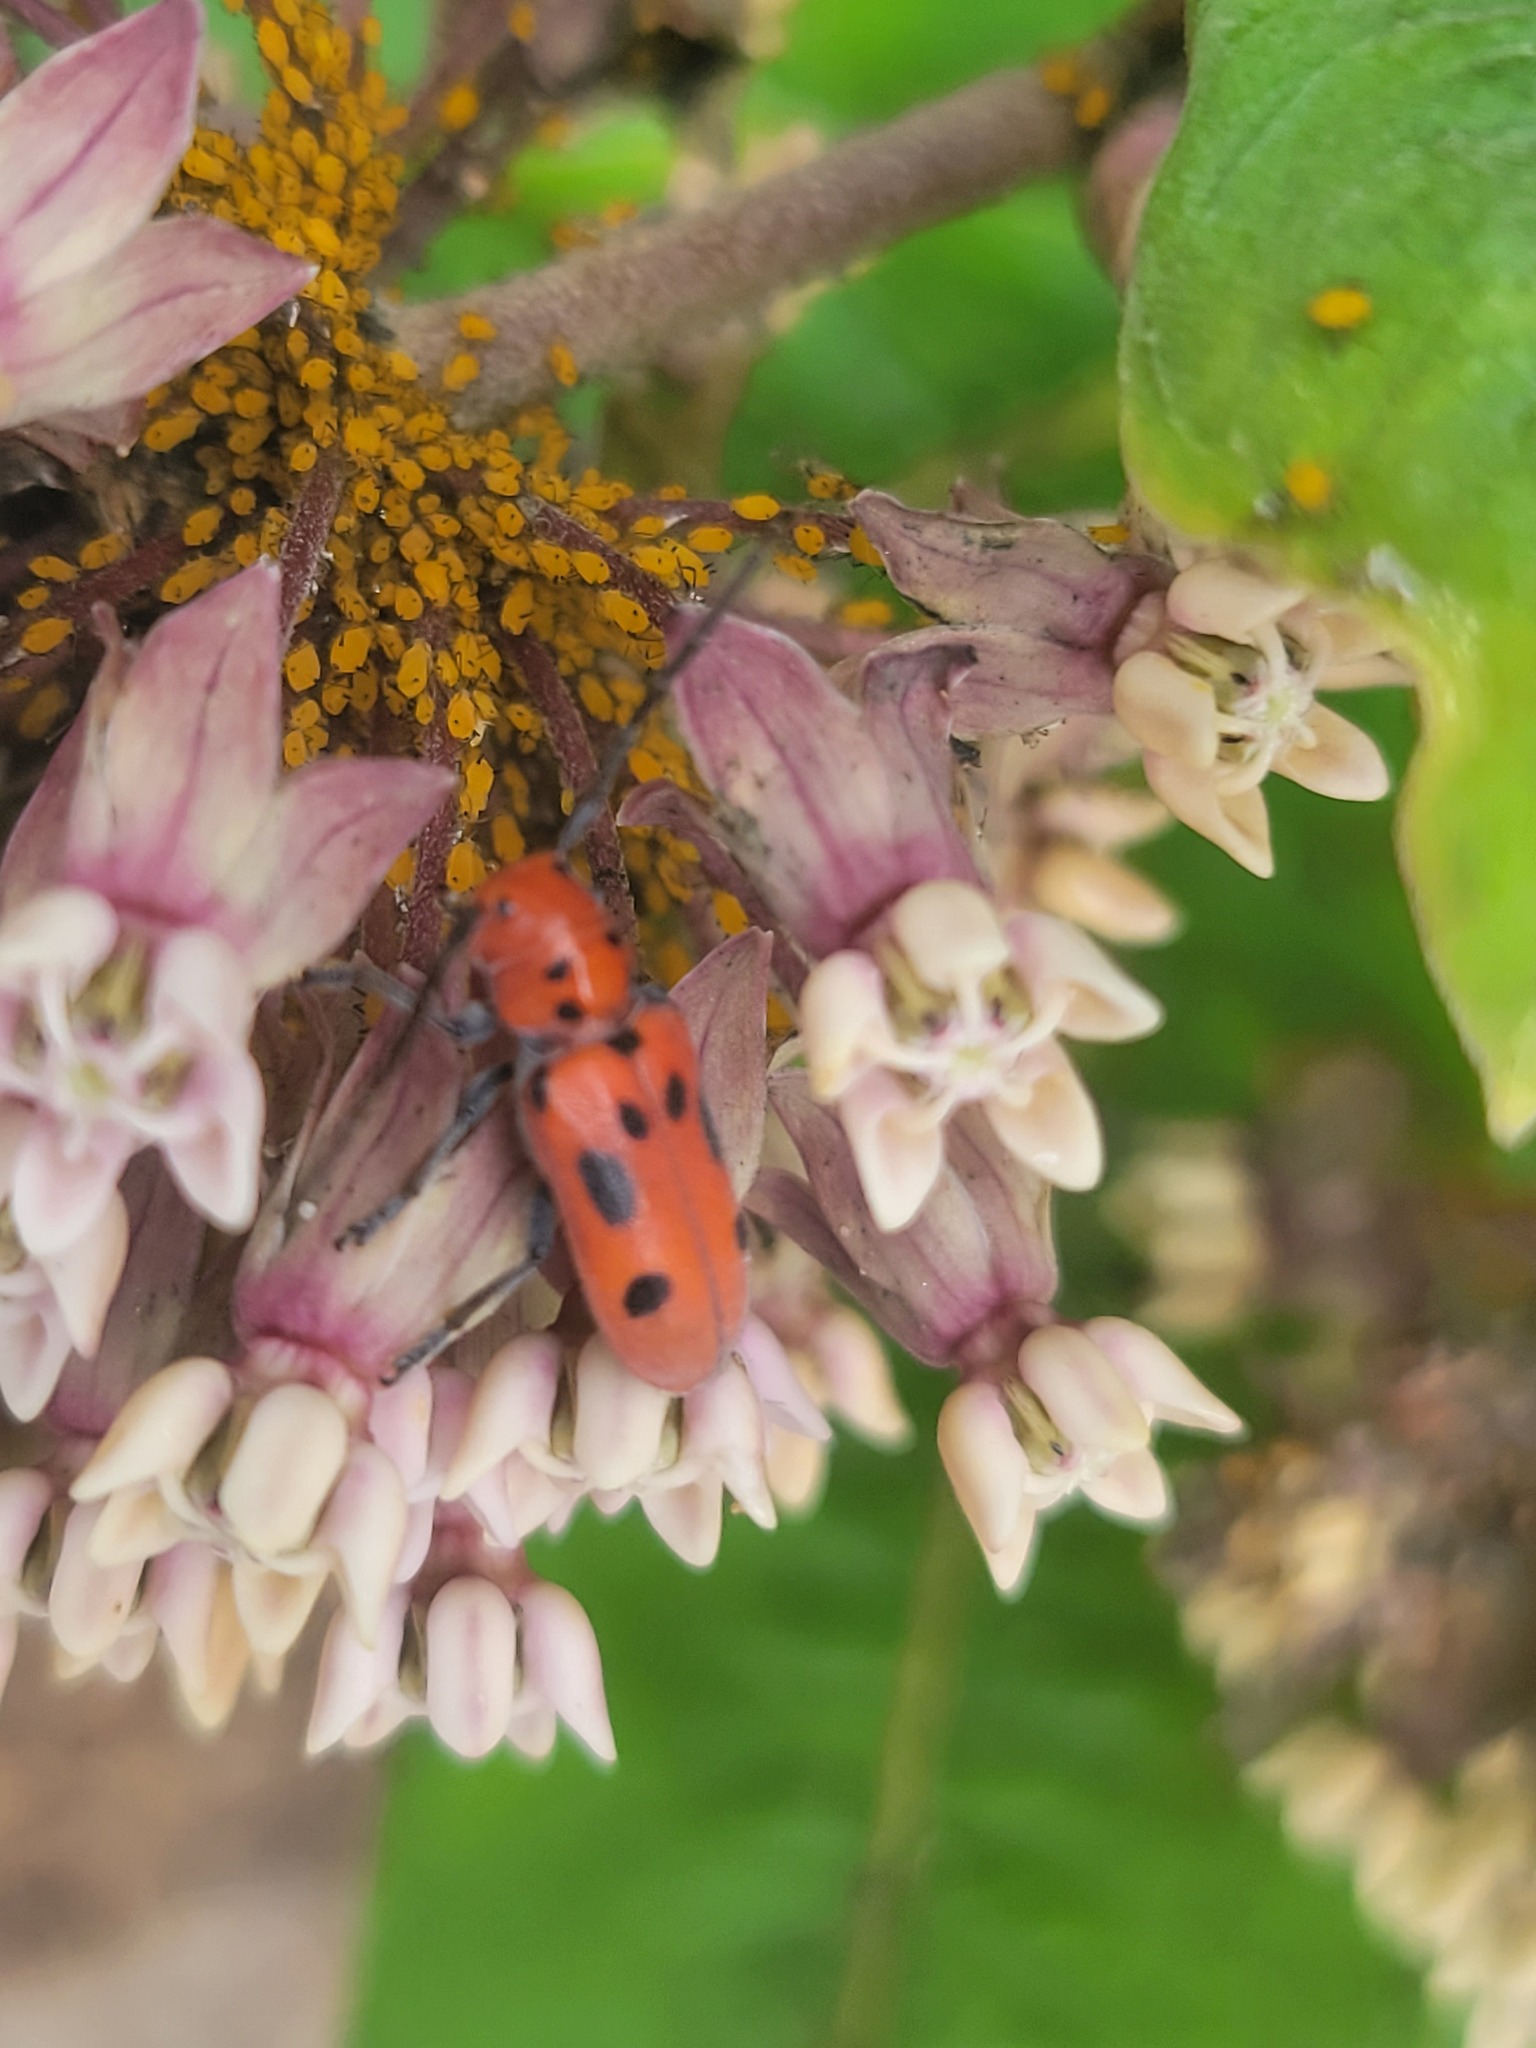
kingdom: Animalia
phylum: Arthropoda
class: Insecta
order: Coleoptera
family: Cerambycidae
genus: Tetraopes
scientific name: Tetraopes tetrophthalmus
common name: Red milkweed beetle
